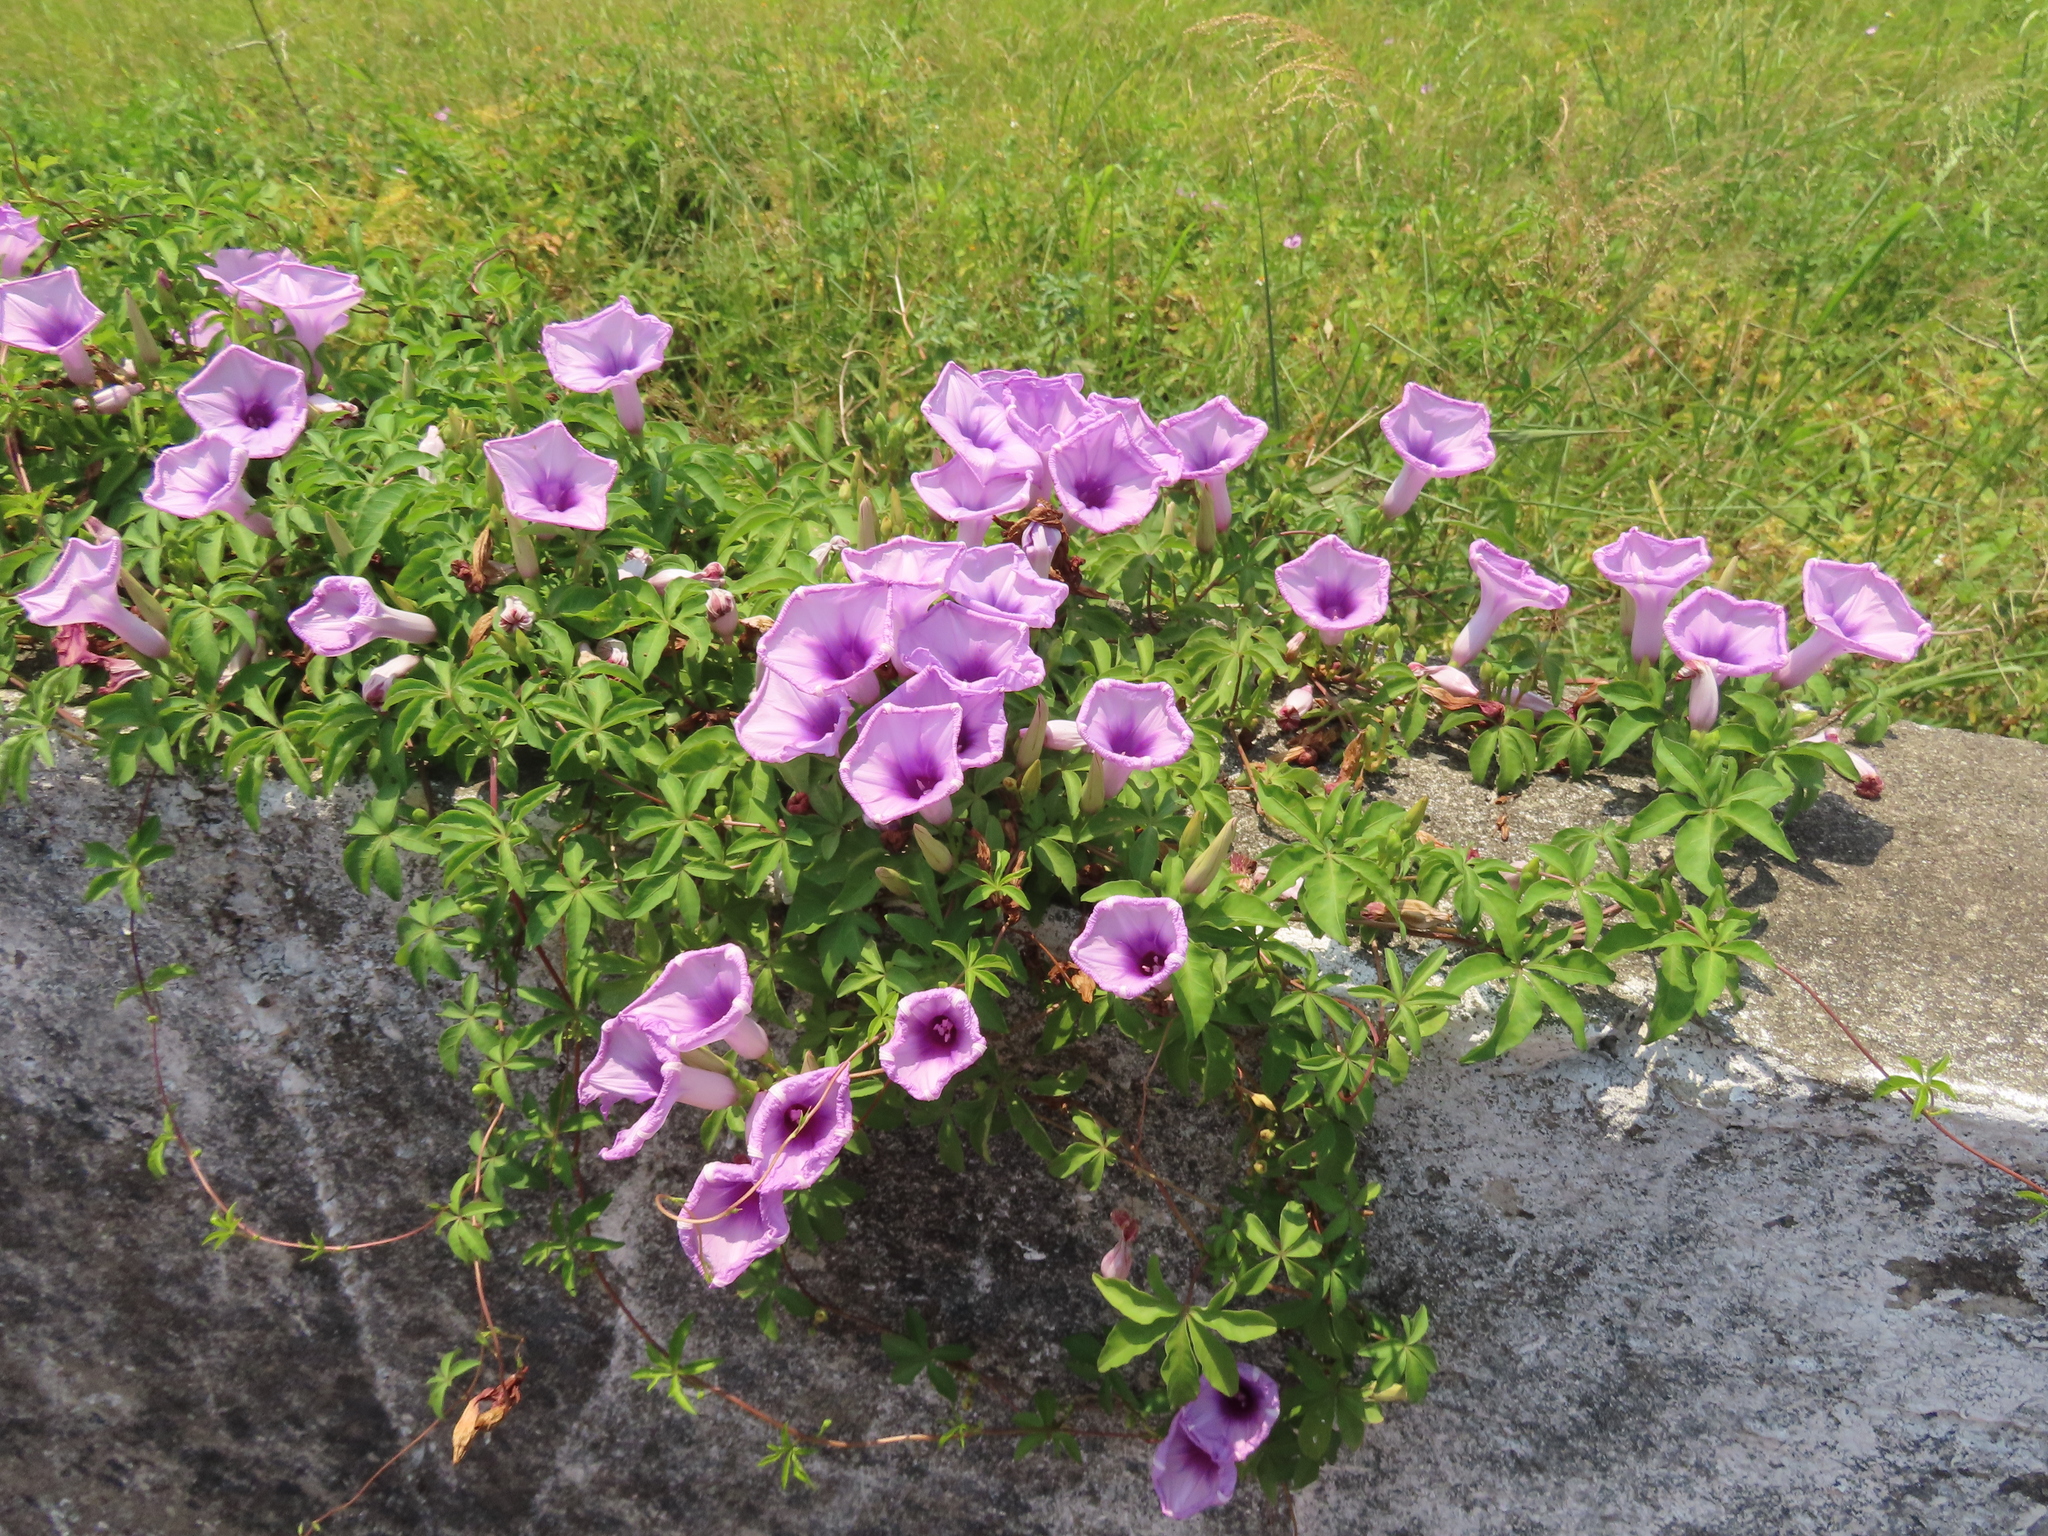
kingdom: Plantae
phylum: Tracheophyta
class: Magnoliopsida
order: Solanales
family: Convolvulaceae
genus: Ipomoea
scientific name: Ipomoea cairica
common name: Mile a minute vine
